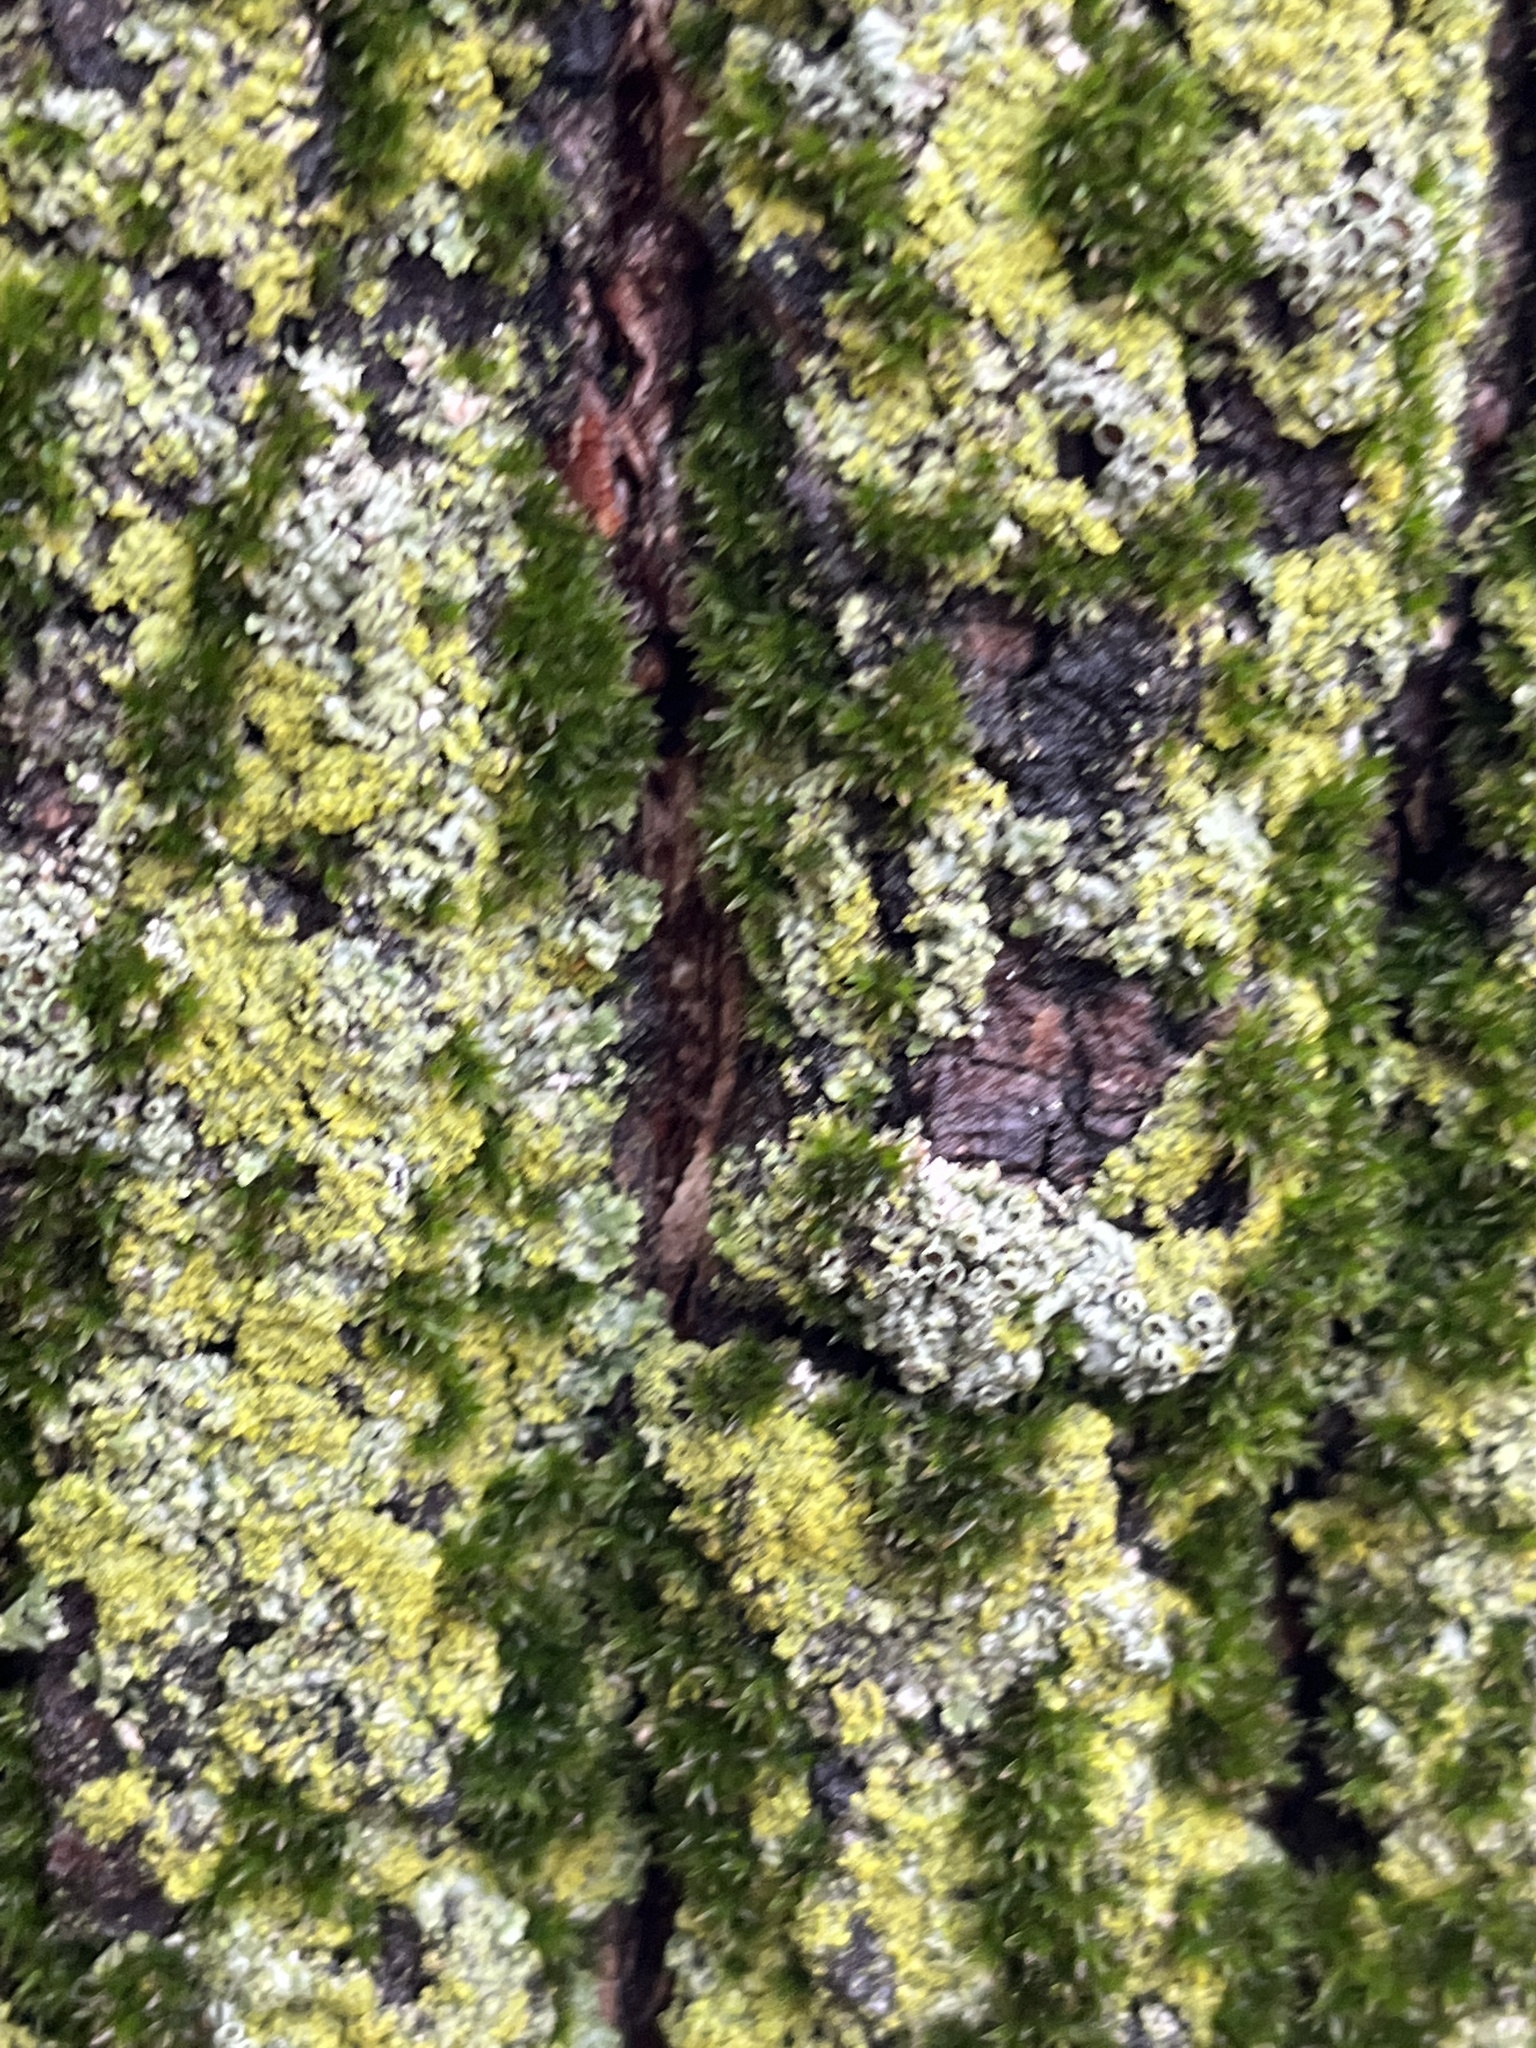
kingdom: Fungi
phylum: Ascomycota
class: Lecanoromycetes
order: Caliciales
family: Physciaceae
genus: Physcia
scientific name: Physcia millegrana
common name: Rosette lichen
